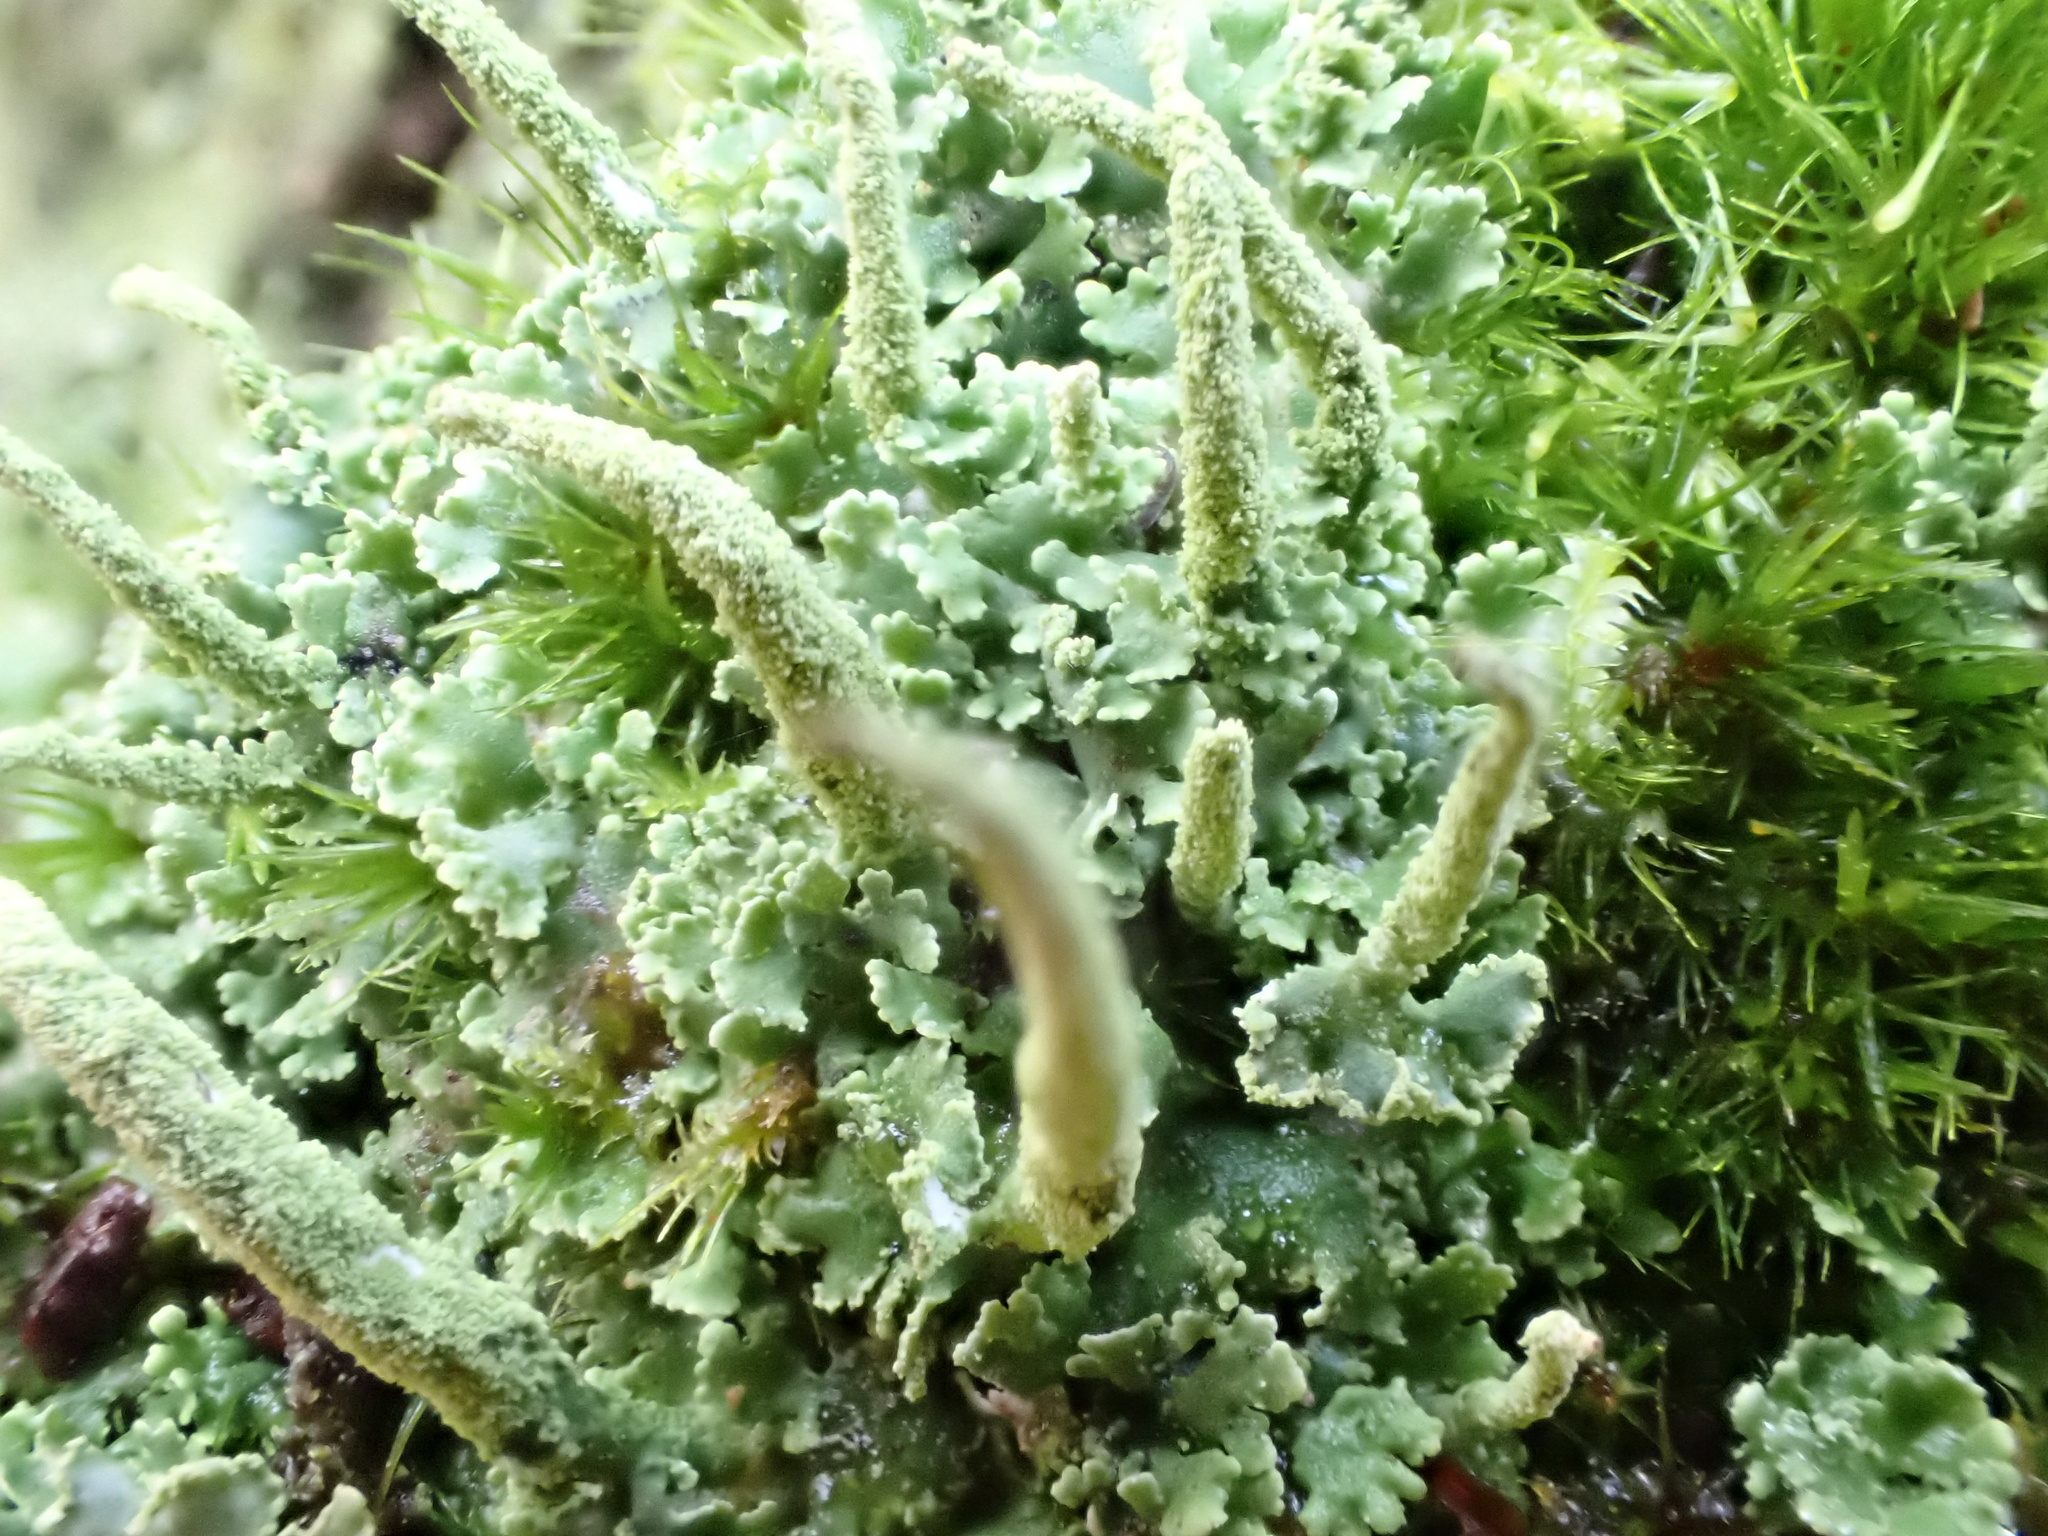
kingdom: Fungi
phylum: Ascomycota
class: Lecanoromycetes
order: Lecanorales
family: Cladoniaceae
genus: Cladonia
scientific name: Cladonia coniocraea
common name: Common powderhorn
